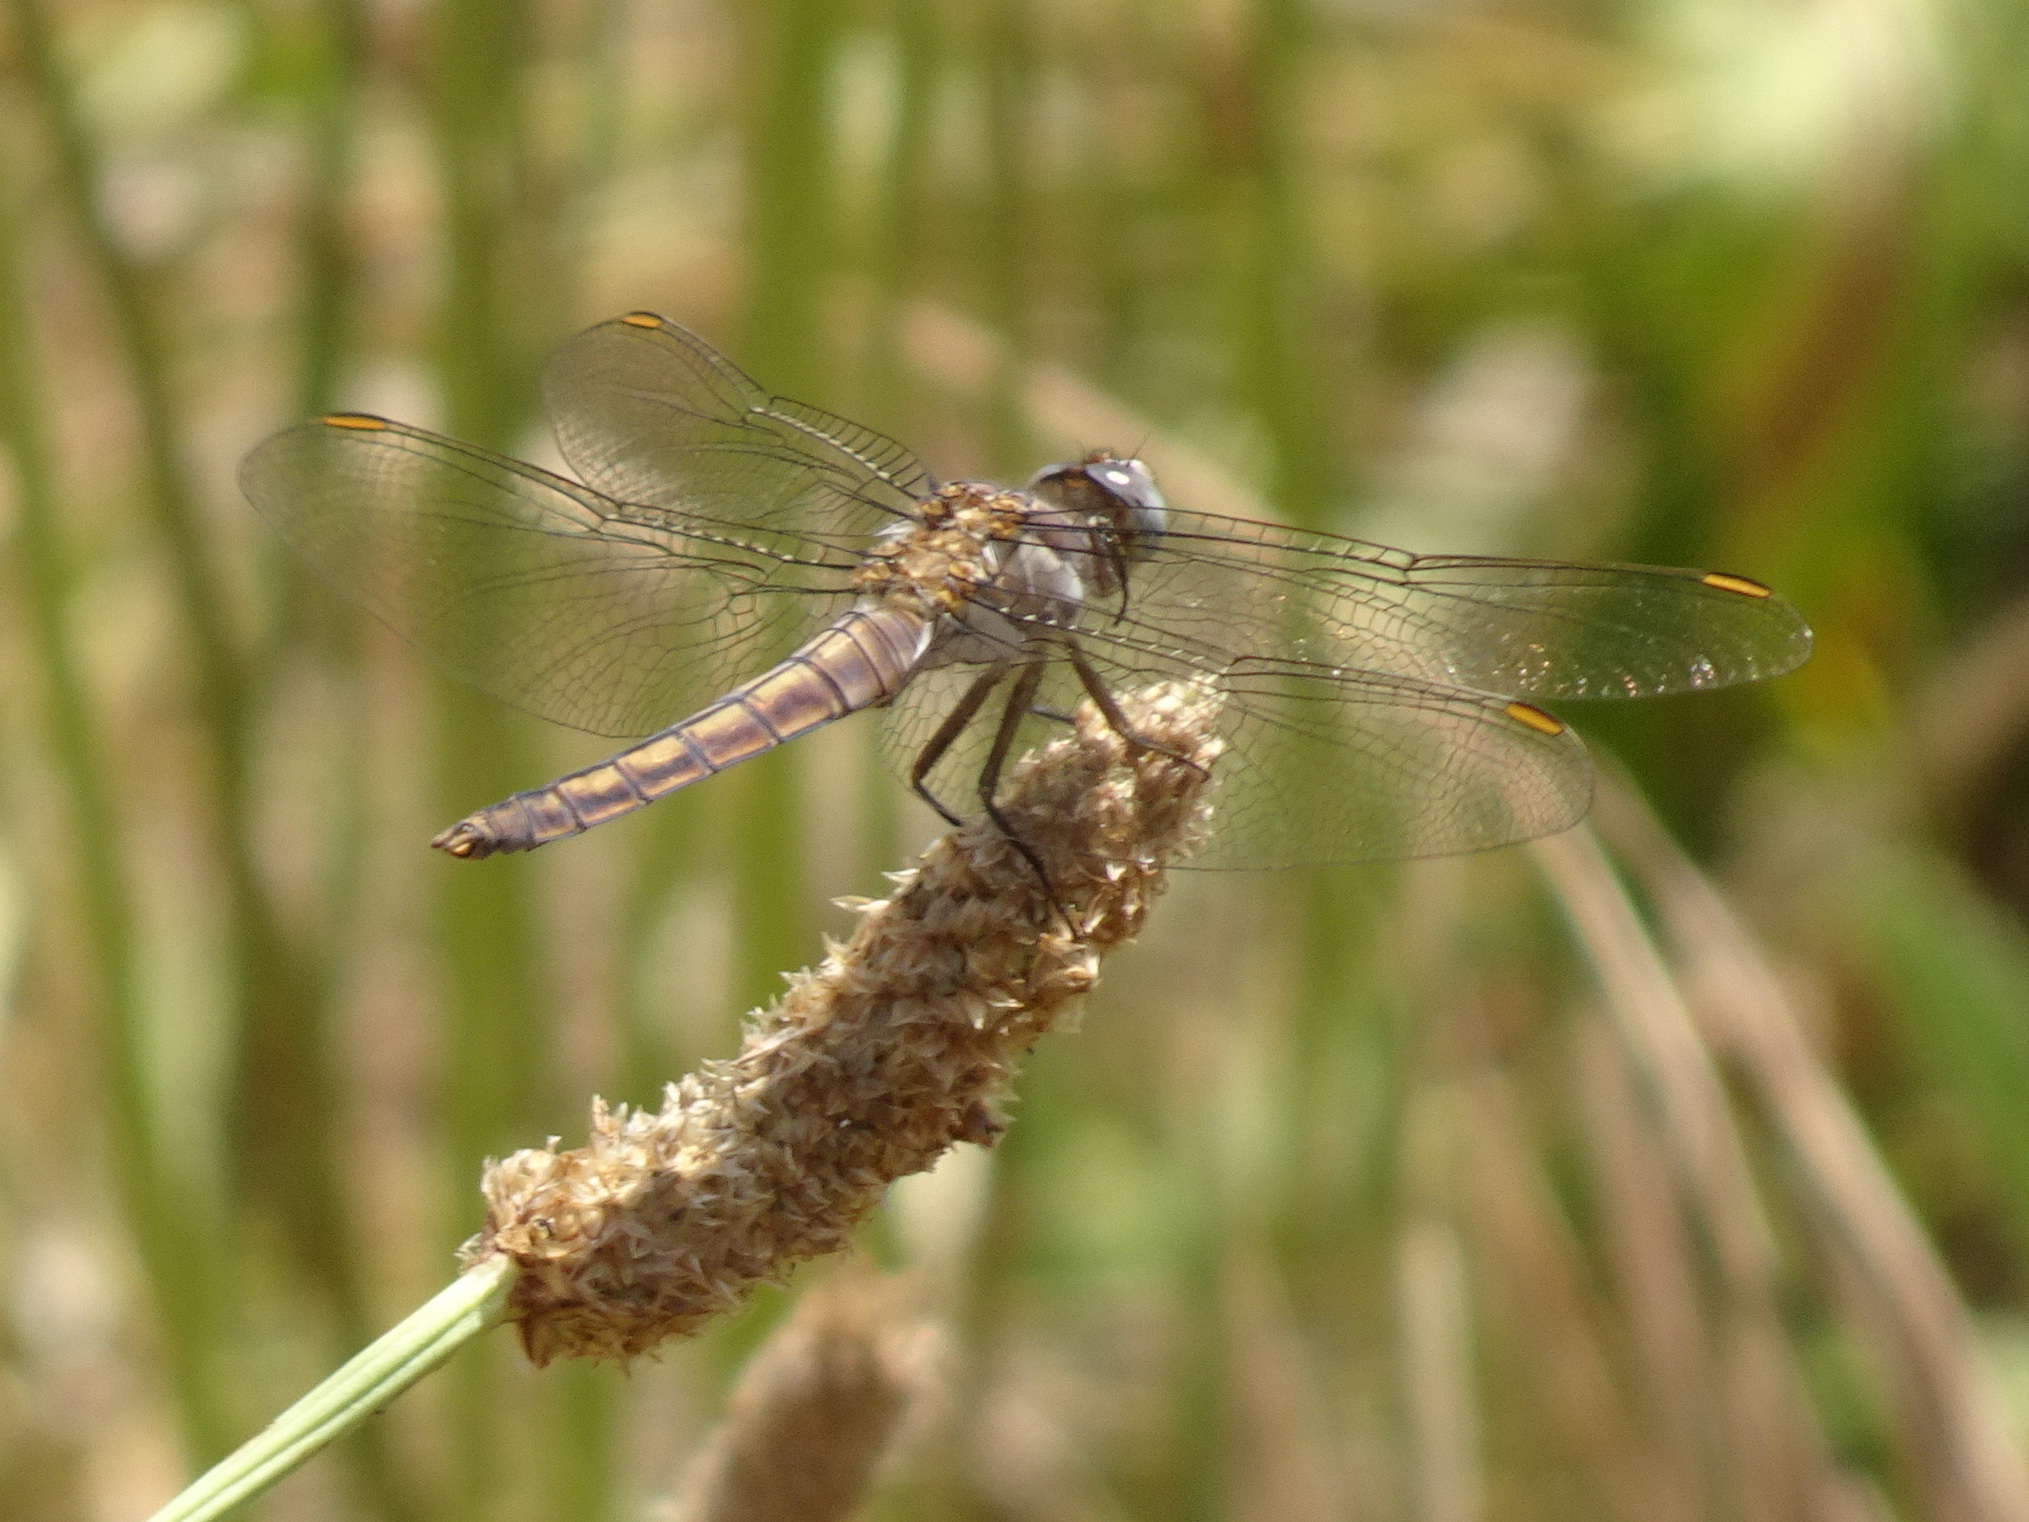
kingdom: Animalia
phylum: Arthropoda
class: Insecta
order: Odonata
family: Libellulidae
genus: Orthetrum
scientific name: Orthetrum brunneum
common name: Southern skimmer
